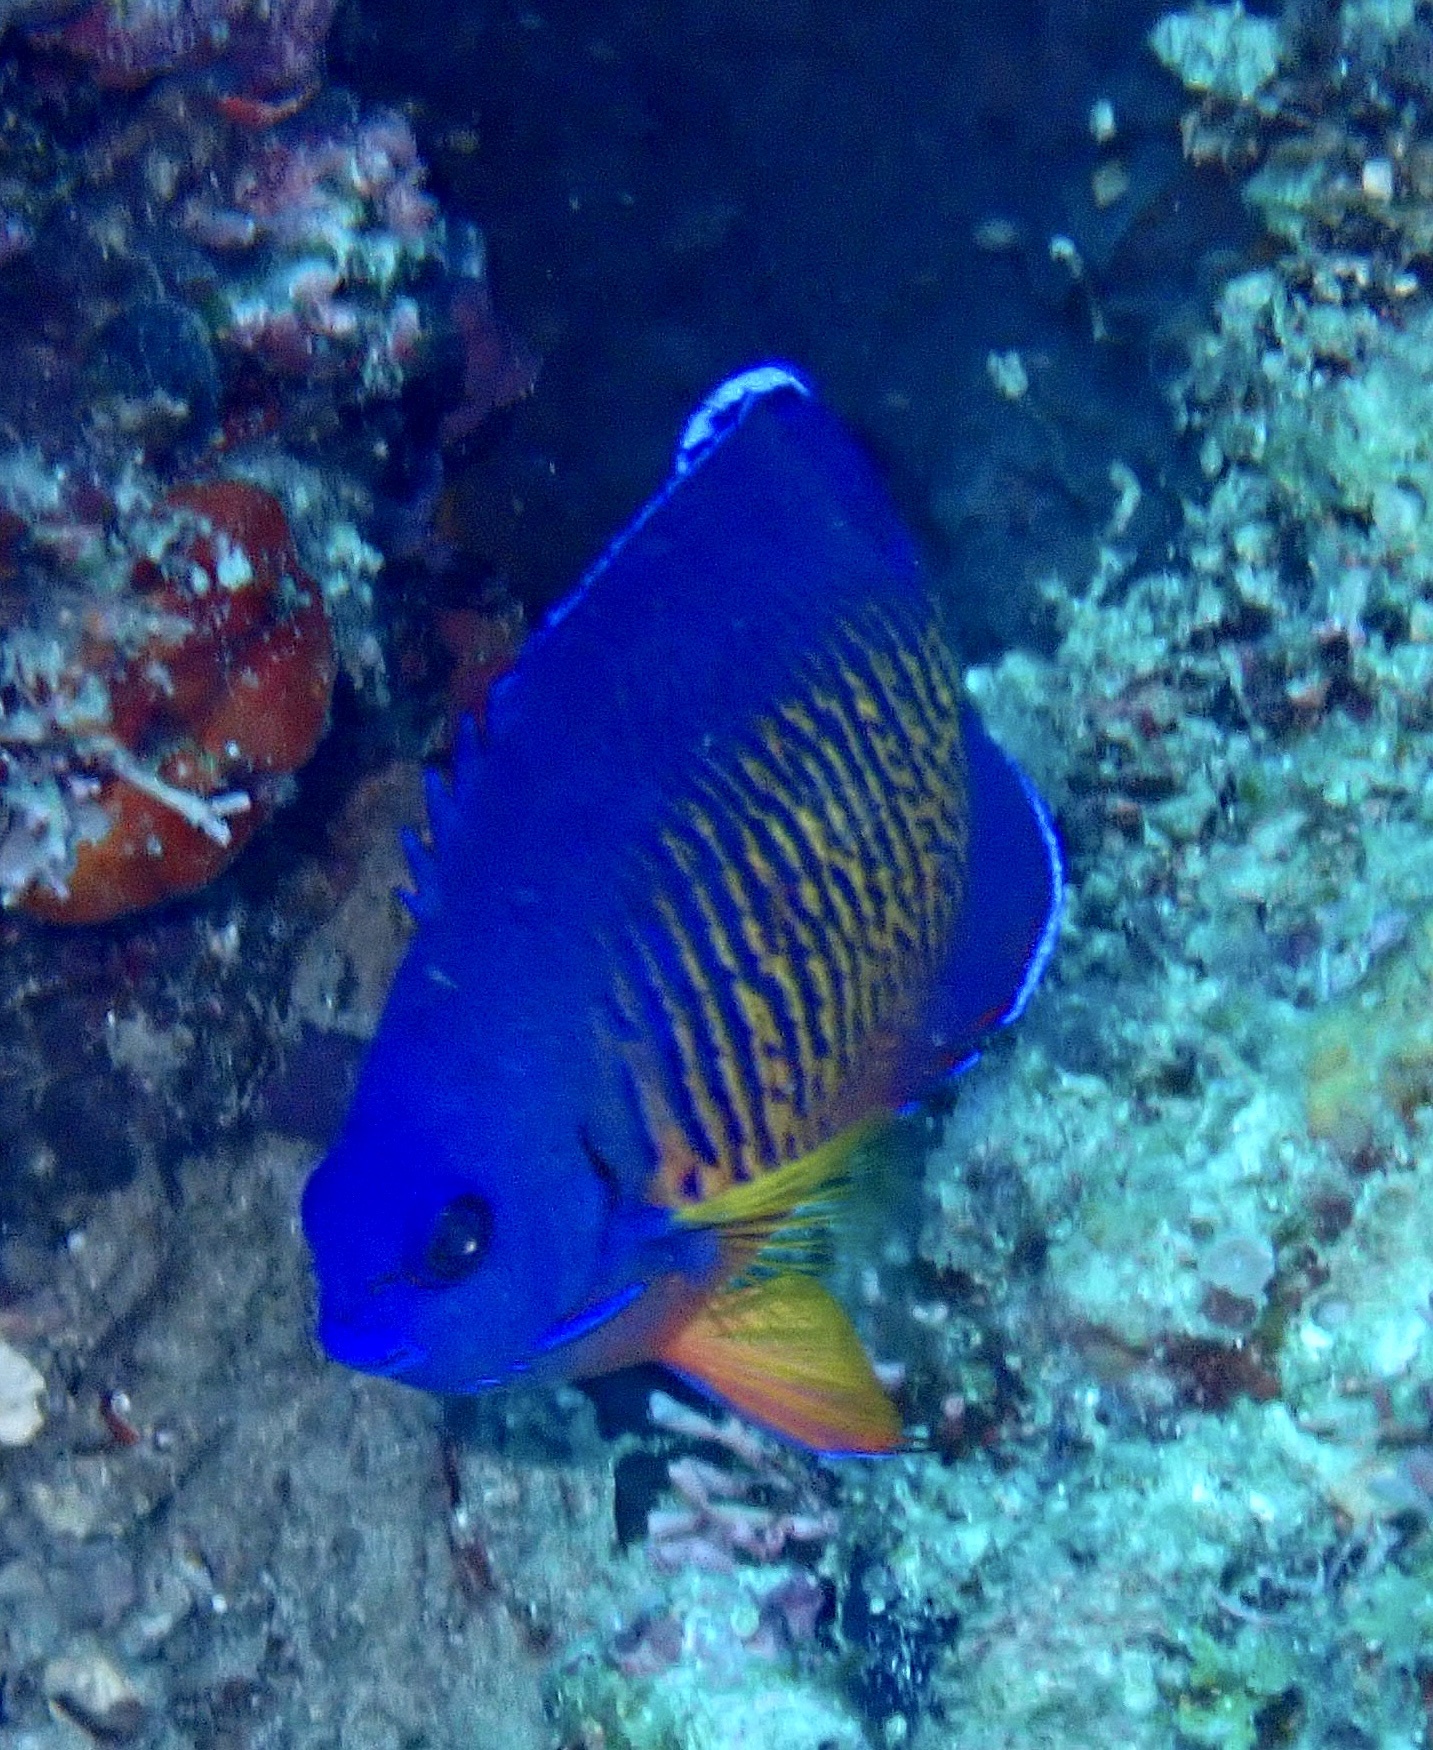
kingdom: Animalia
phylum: Chordata
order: Perciformes
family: Pomacanthidae
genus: Centropyge
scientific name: Centropyge bispinosa
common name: Coral beauty
